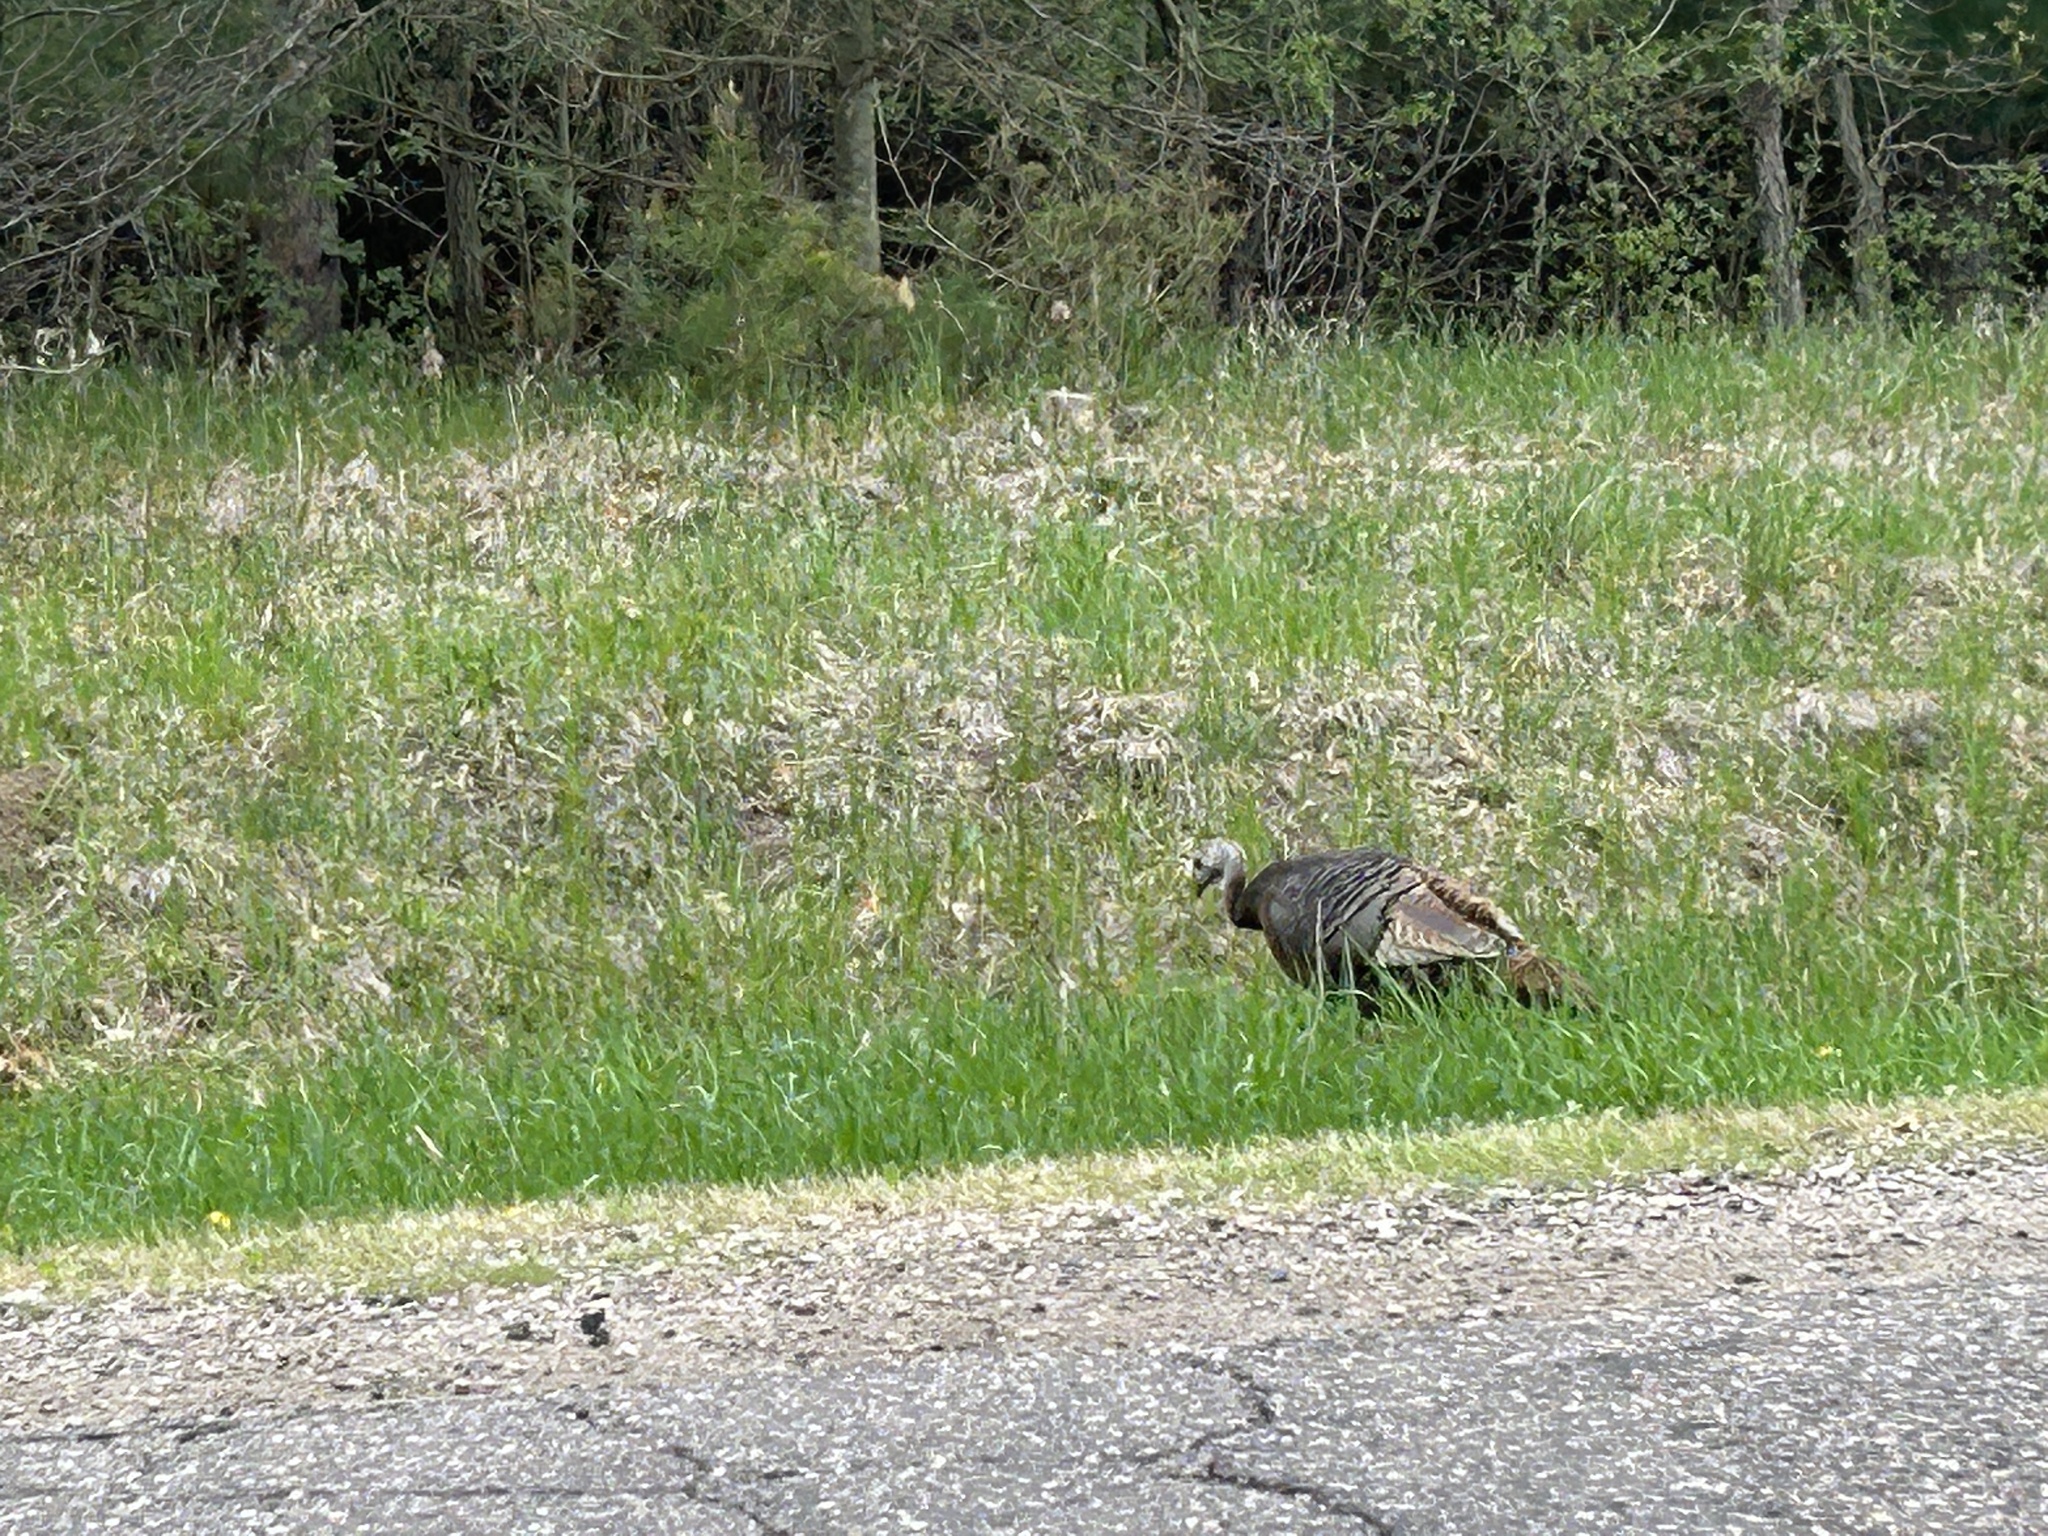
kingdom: Animalia
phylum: Chordata
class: Aves
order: Galliformes
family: Phasianidae
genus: Meleagris
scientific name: Meleagris gallopavo
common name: Wild turkey
